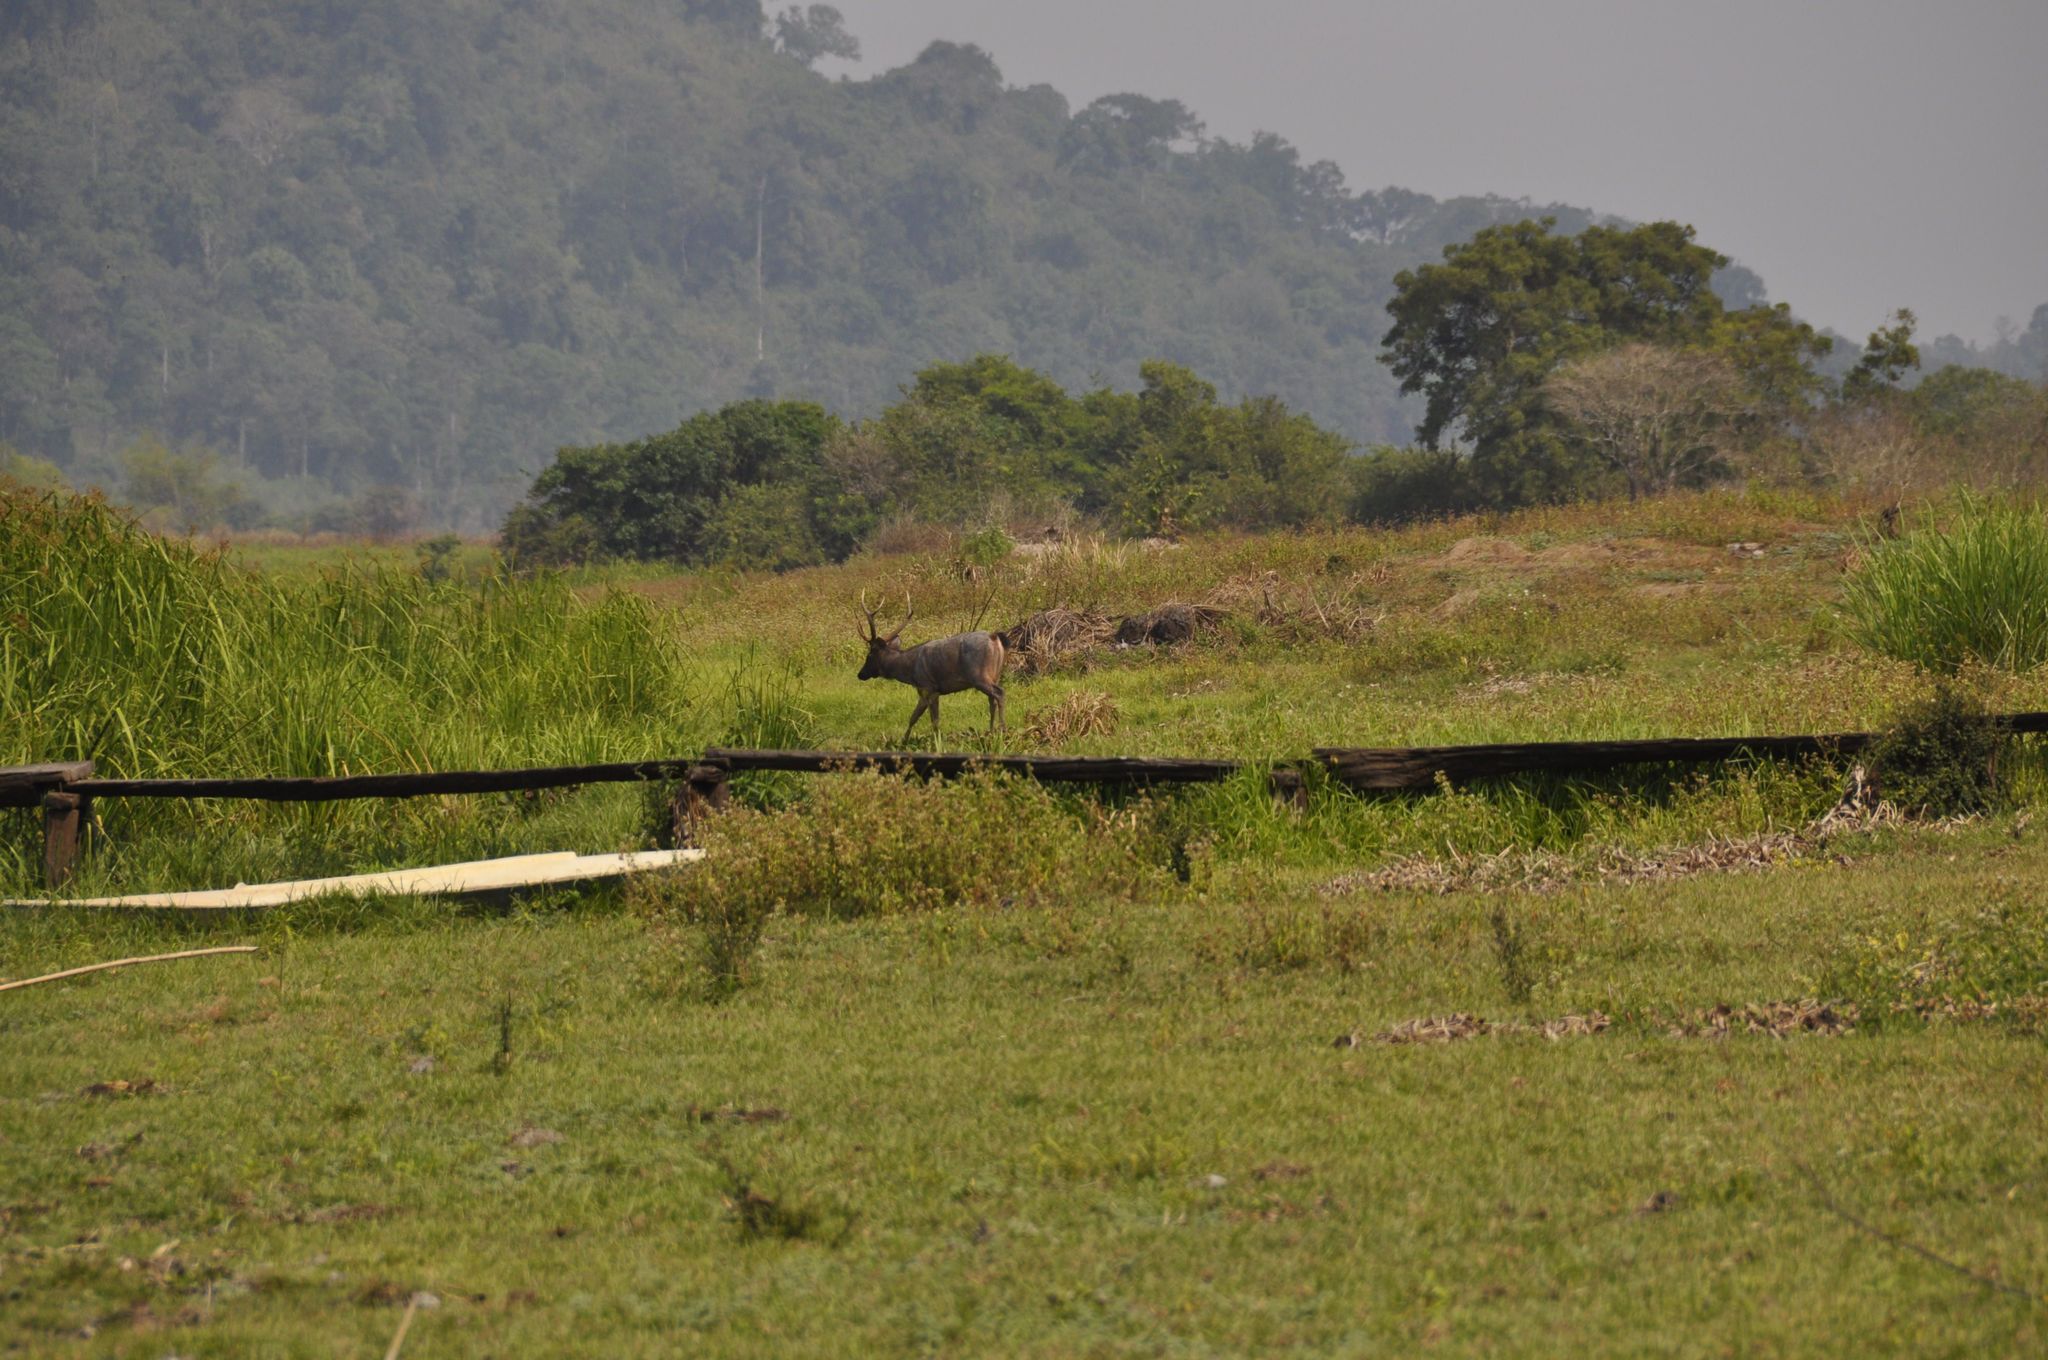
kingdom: Animalia
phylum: Chordata
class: Mammalia
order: Artiodactyla
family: Cervidae
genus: Rusa
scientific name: Rusa unicolor
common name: Sambar
